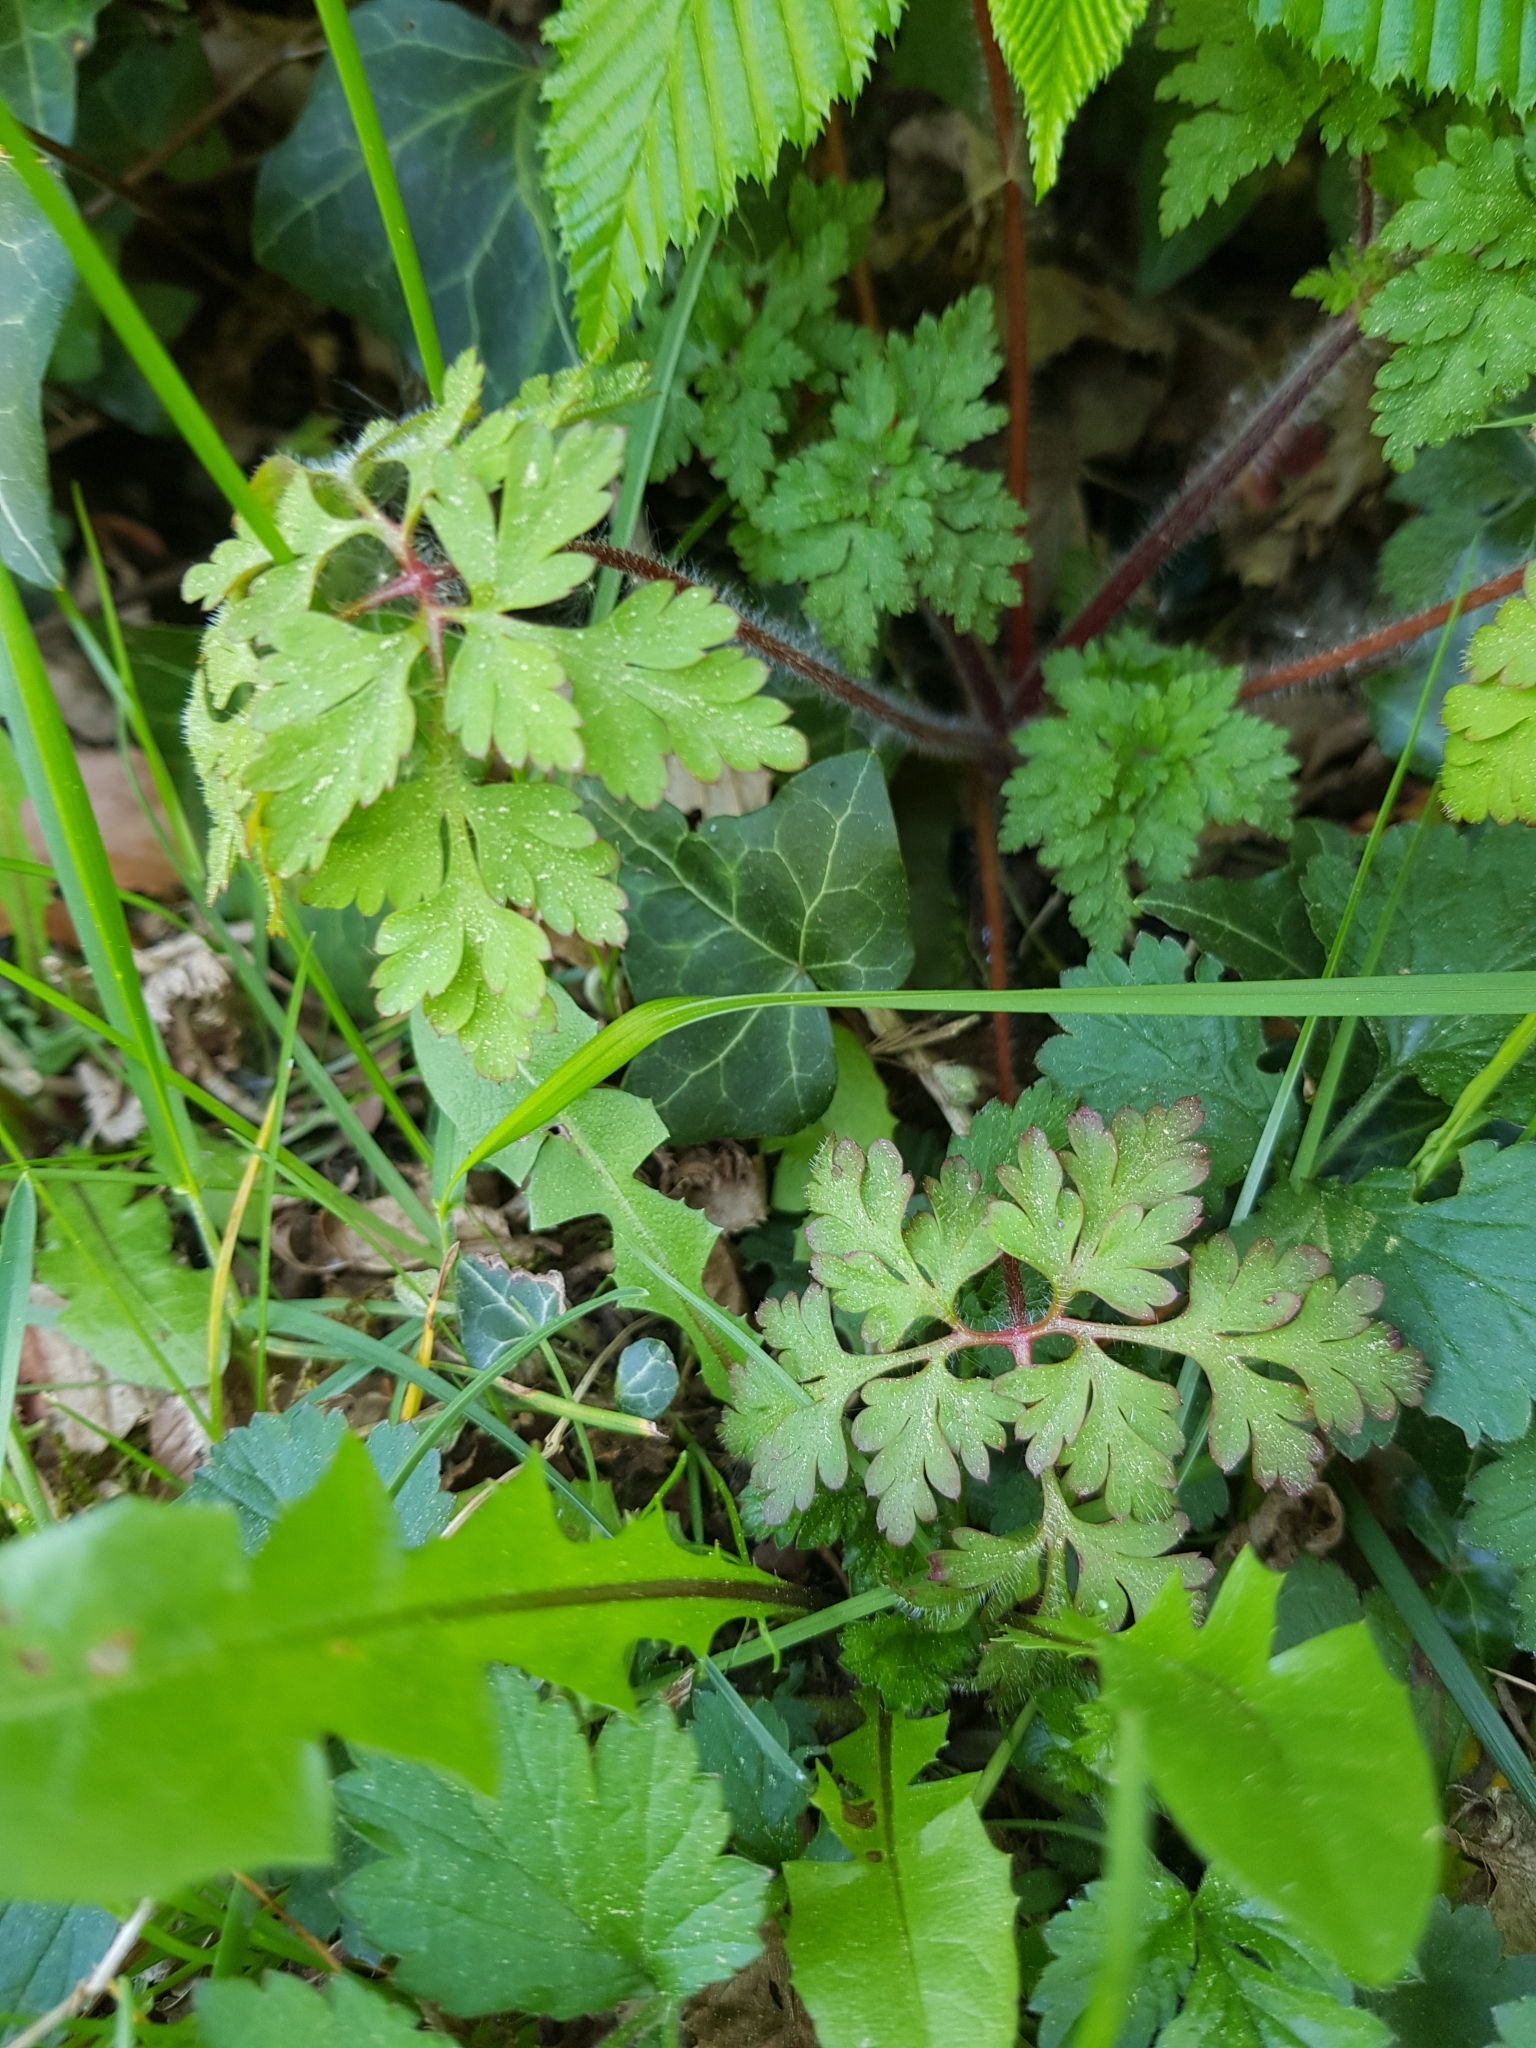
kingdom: Plantae
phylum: Tracheophyta
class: Magnoliopsida
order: Geraniales
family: Geraniaceae
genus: Geranium
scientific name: Geranium robertianum
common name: Herb-robert
